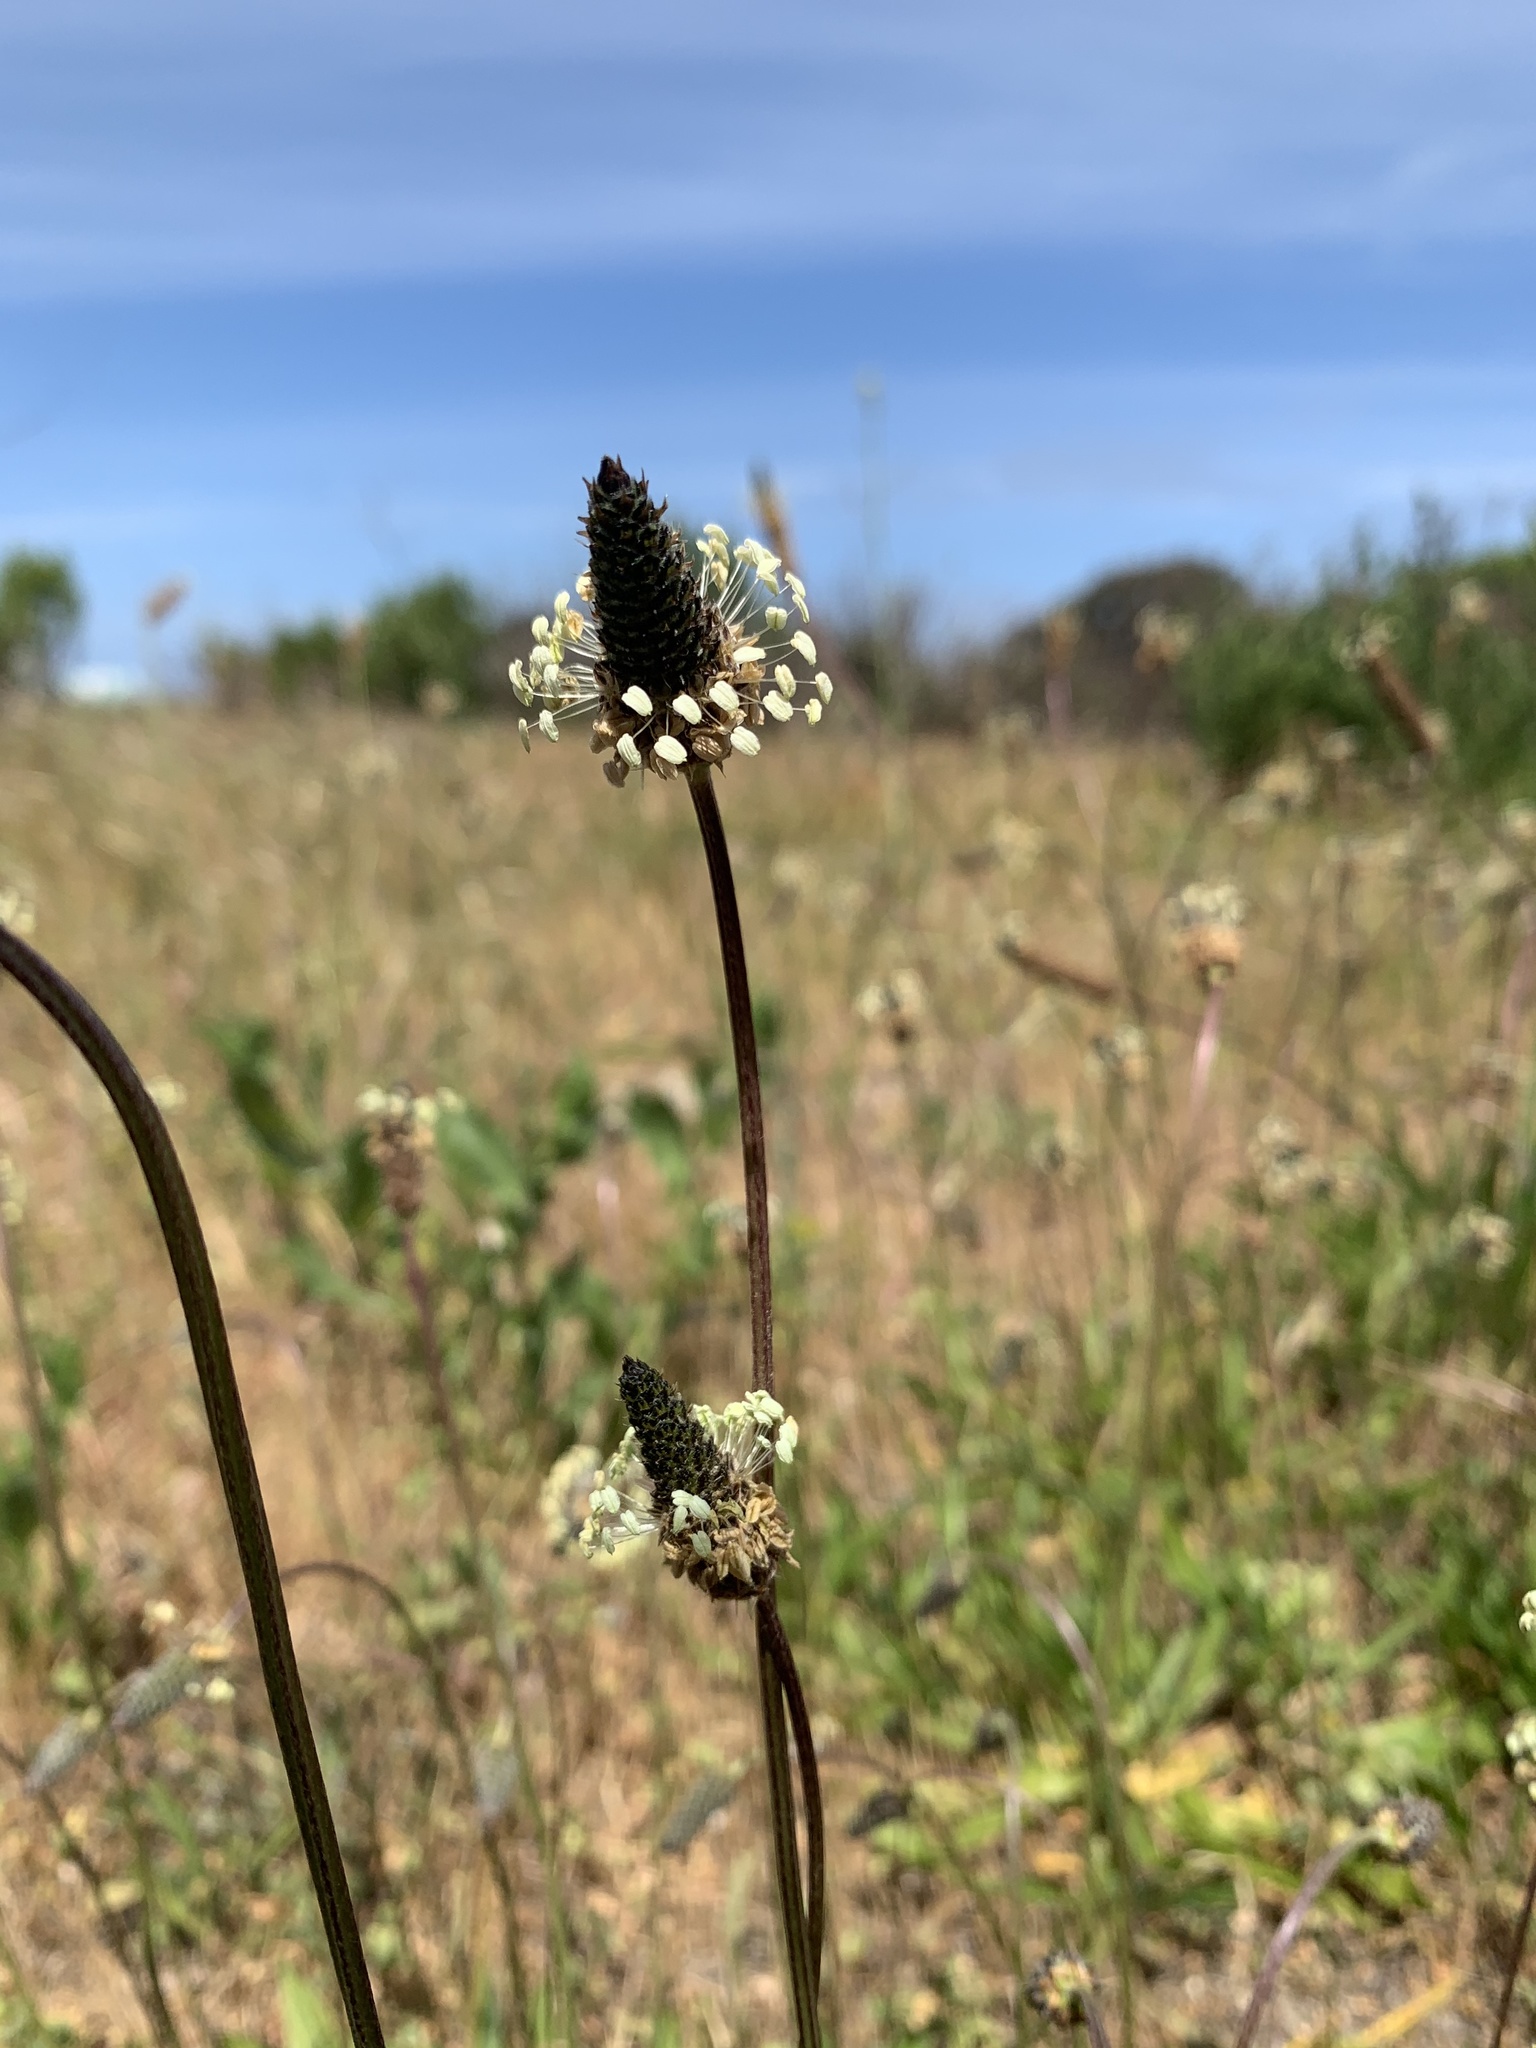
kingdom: Plantae
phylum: Tracheophyta
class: Magnoliopsida
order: Lamiales
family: Plantaginaceae
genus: Plantago
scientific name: Plantago lanceolata
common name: Ribwort plantain
